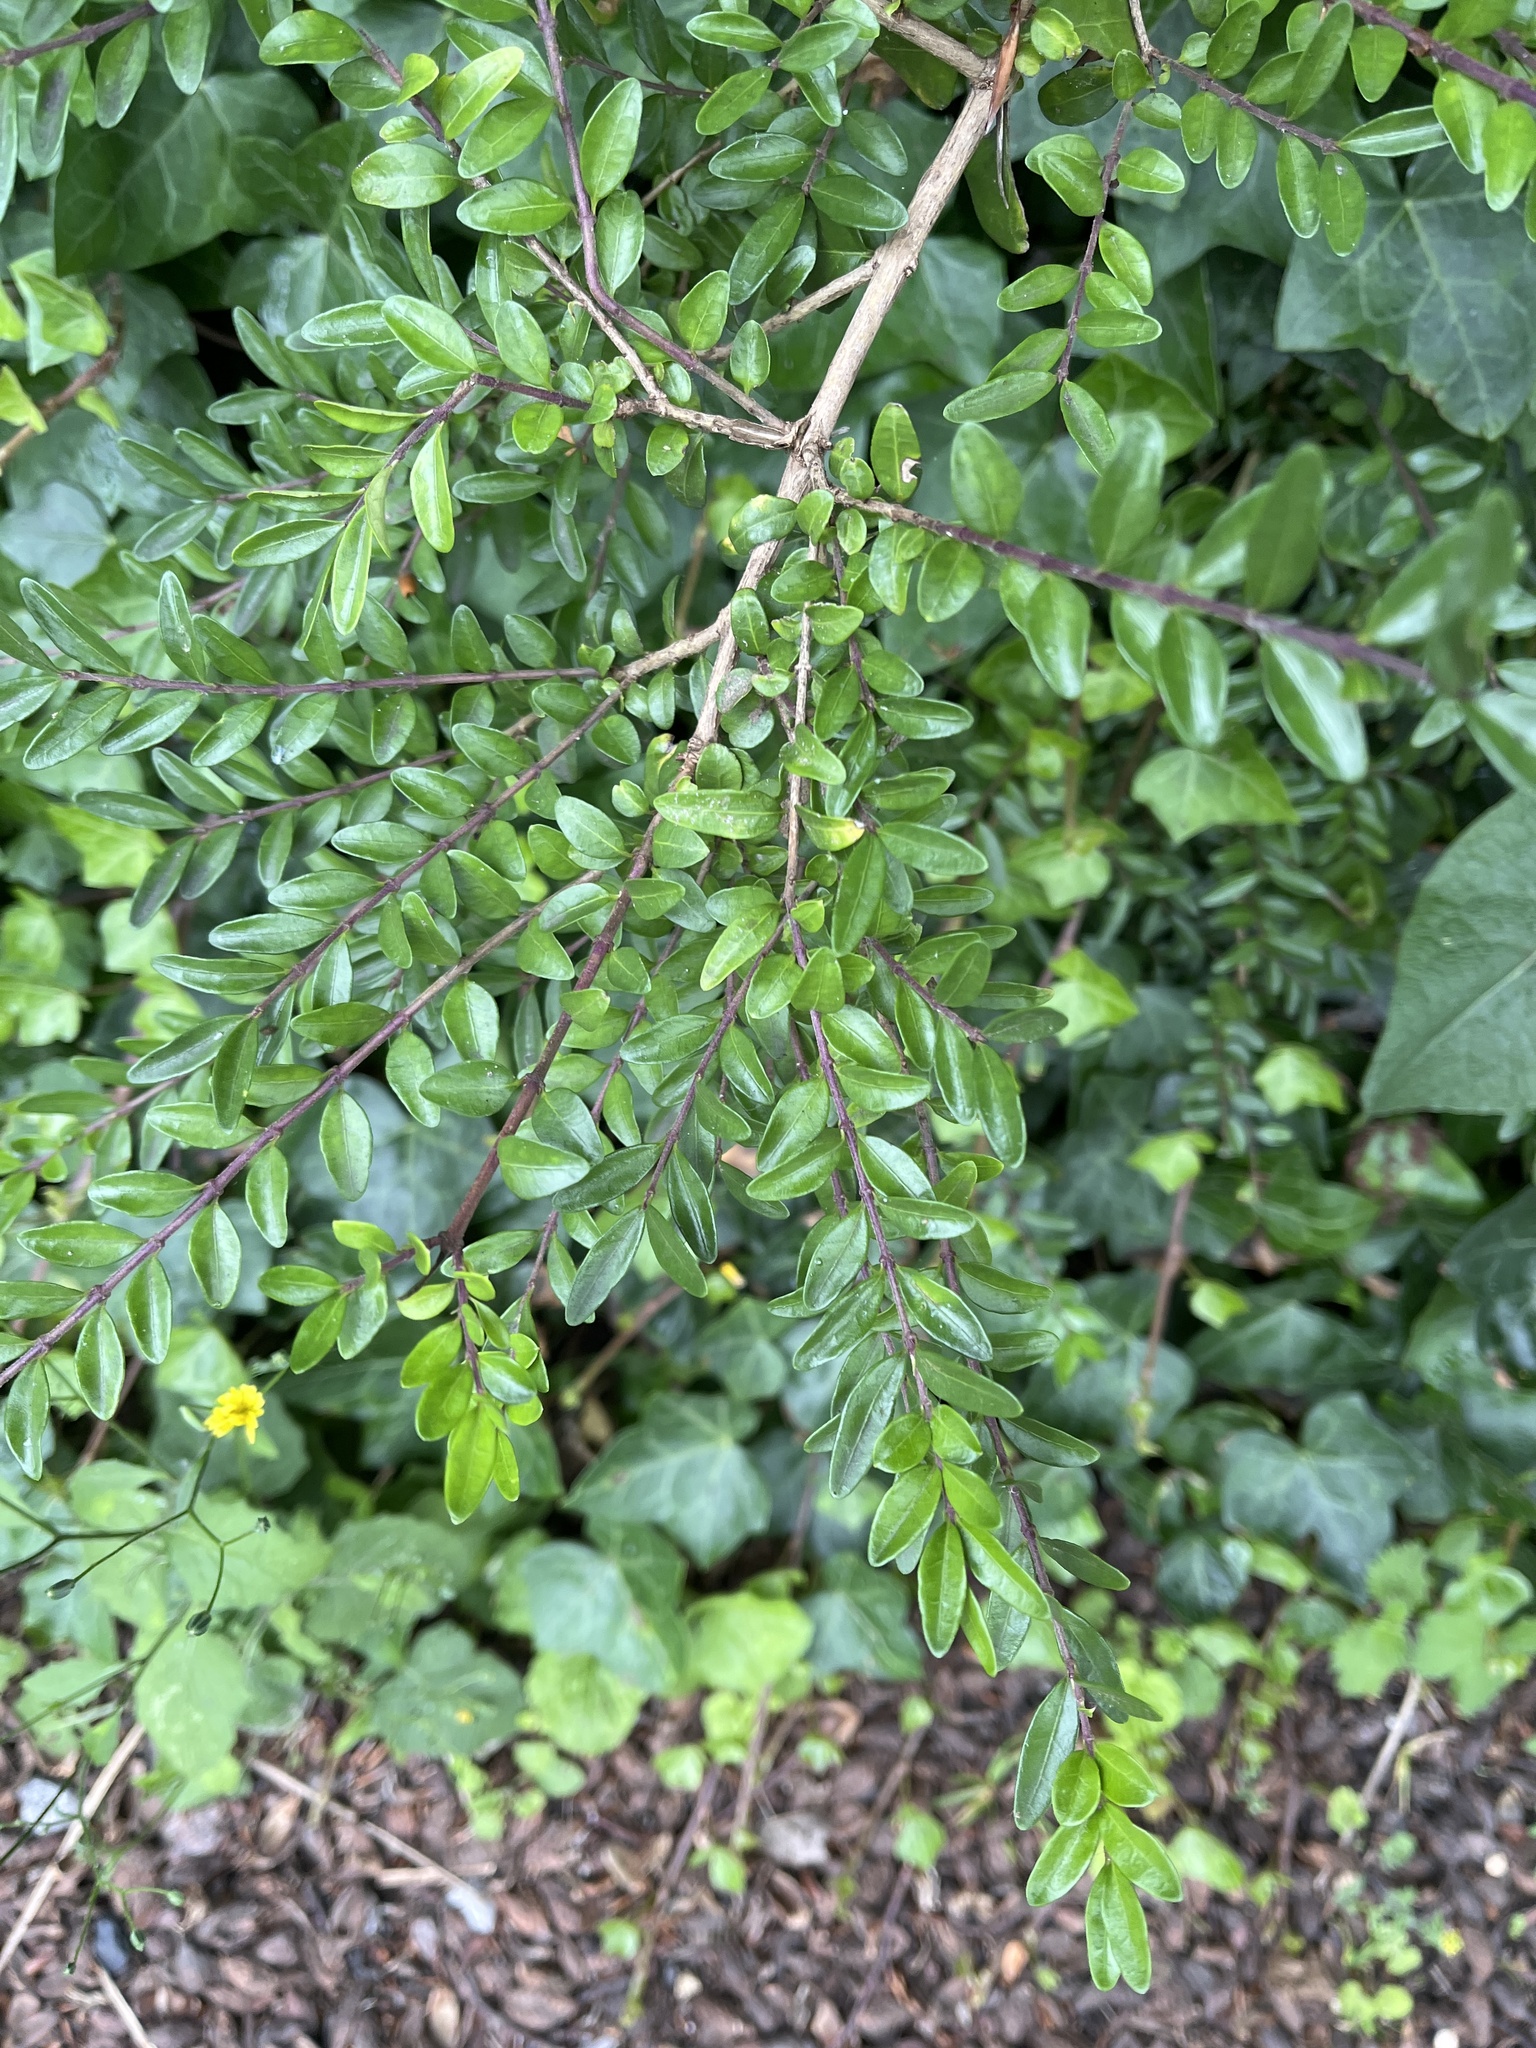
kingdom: Plantae
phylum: Tracheophyta
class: Magnoliopsida
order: Dipsacales
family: Caprifoliaceae
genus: Lonicera
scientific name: Lonicera ligustrina
